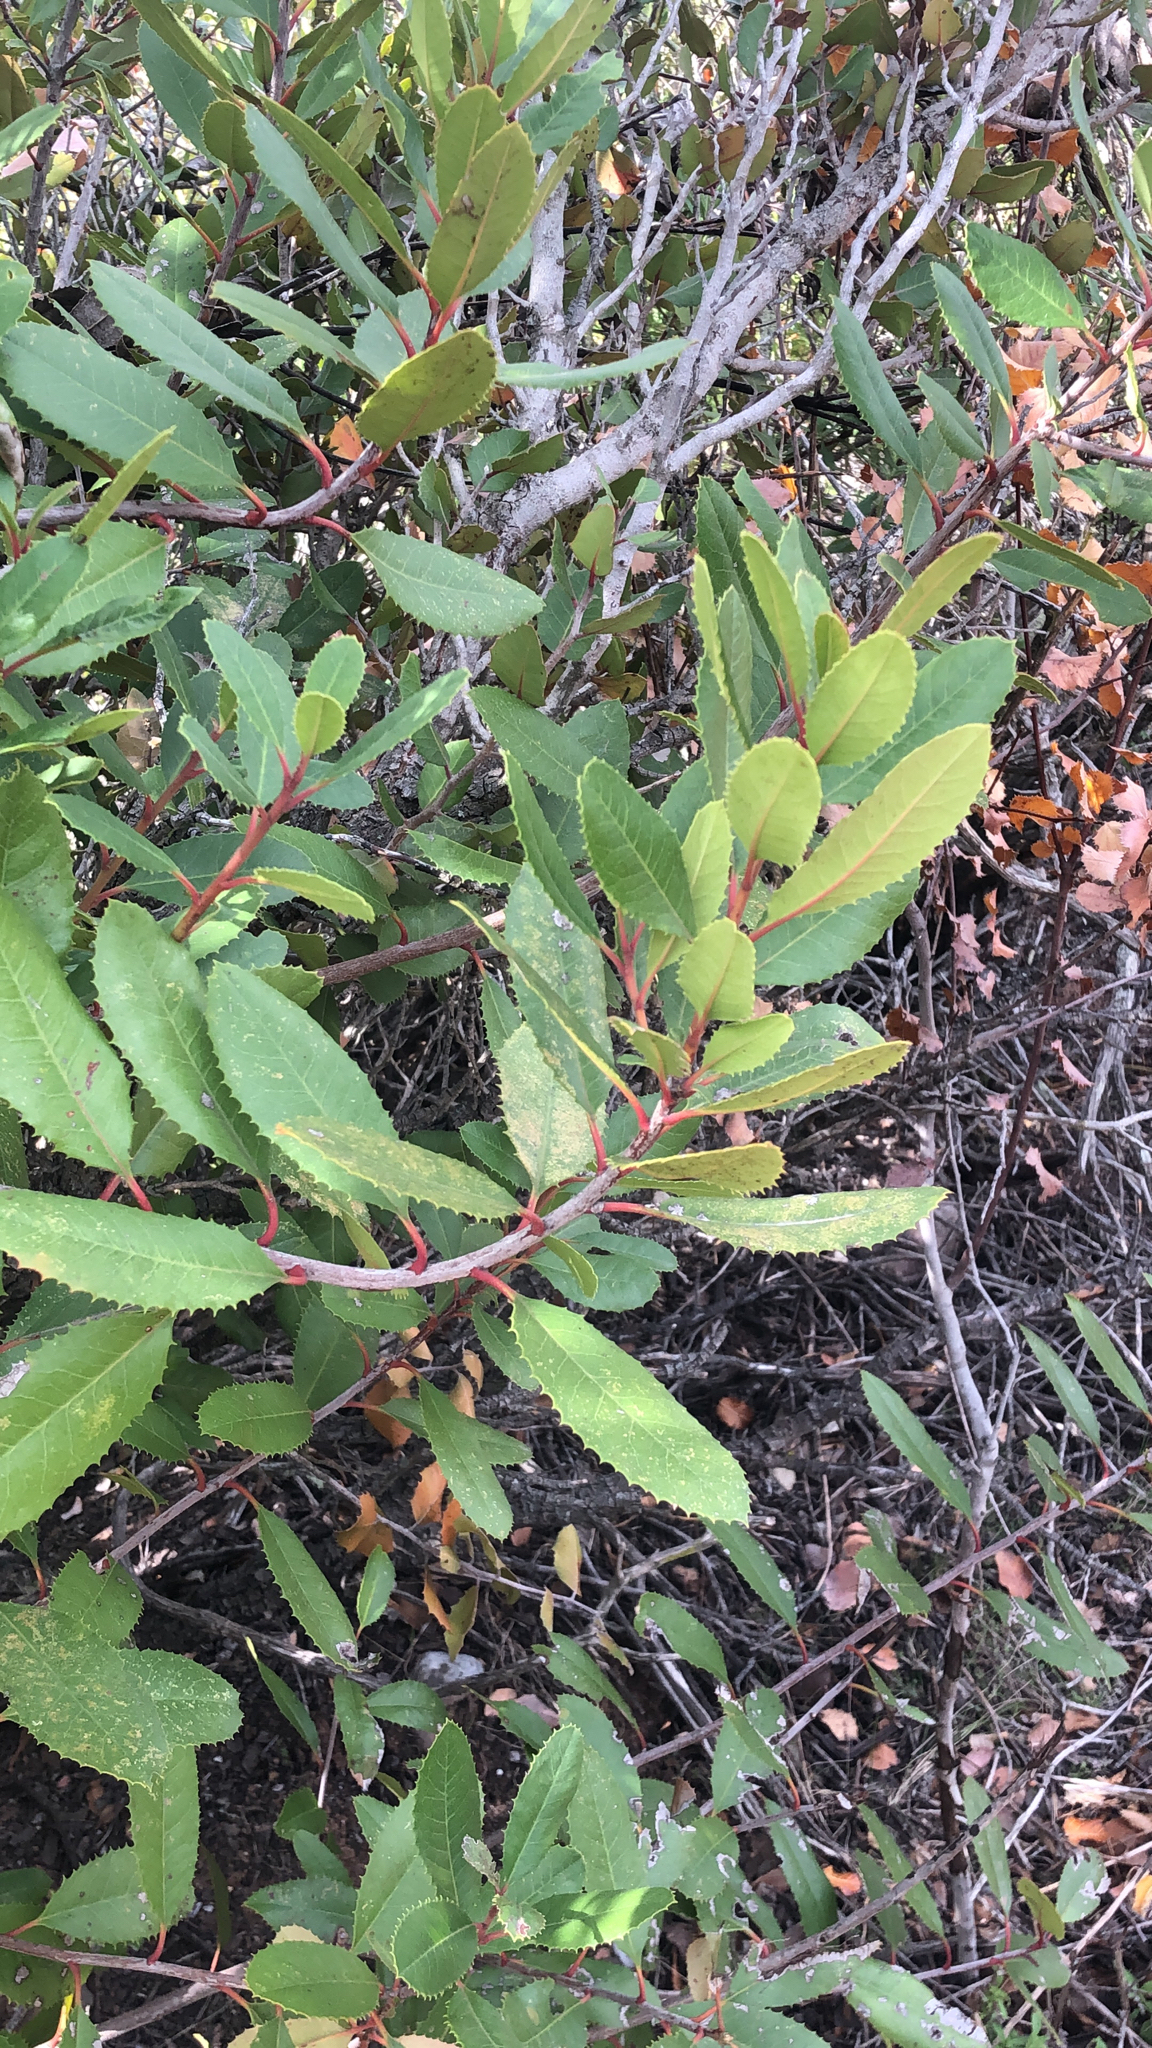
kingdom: Plantae
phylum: Tracheophyta
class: Magnoliopsida
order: Rosales
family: Rosaceae
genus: Heteromeles
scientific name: Heteromeles arbutifolia
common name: California-holly
